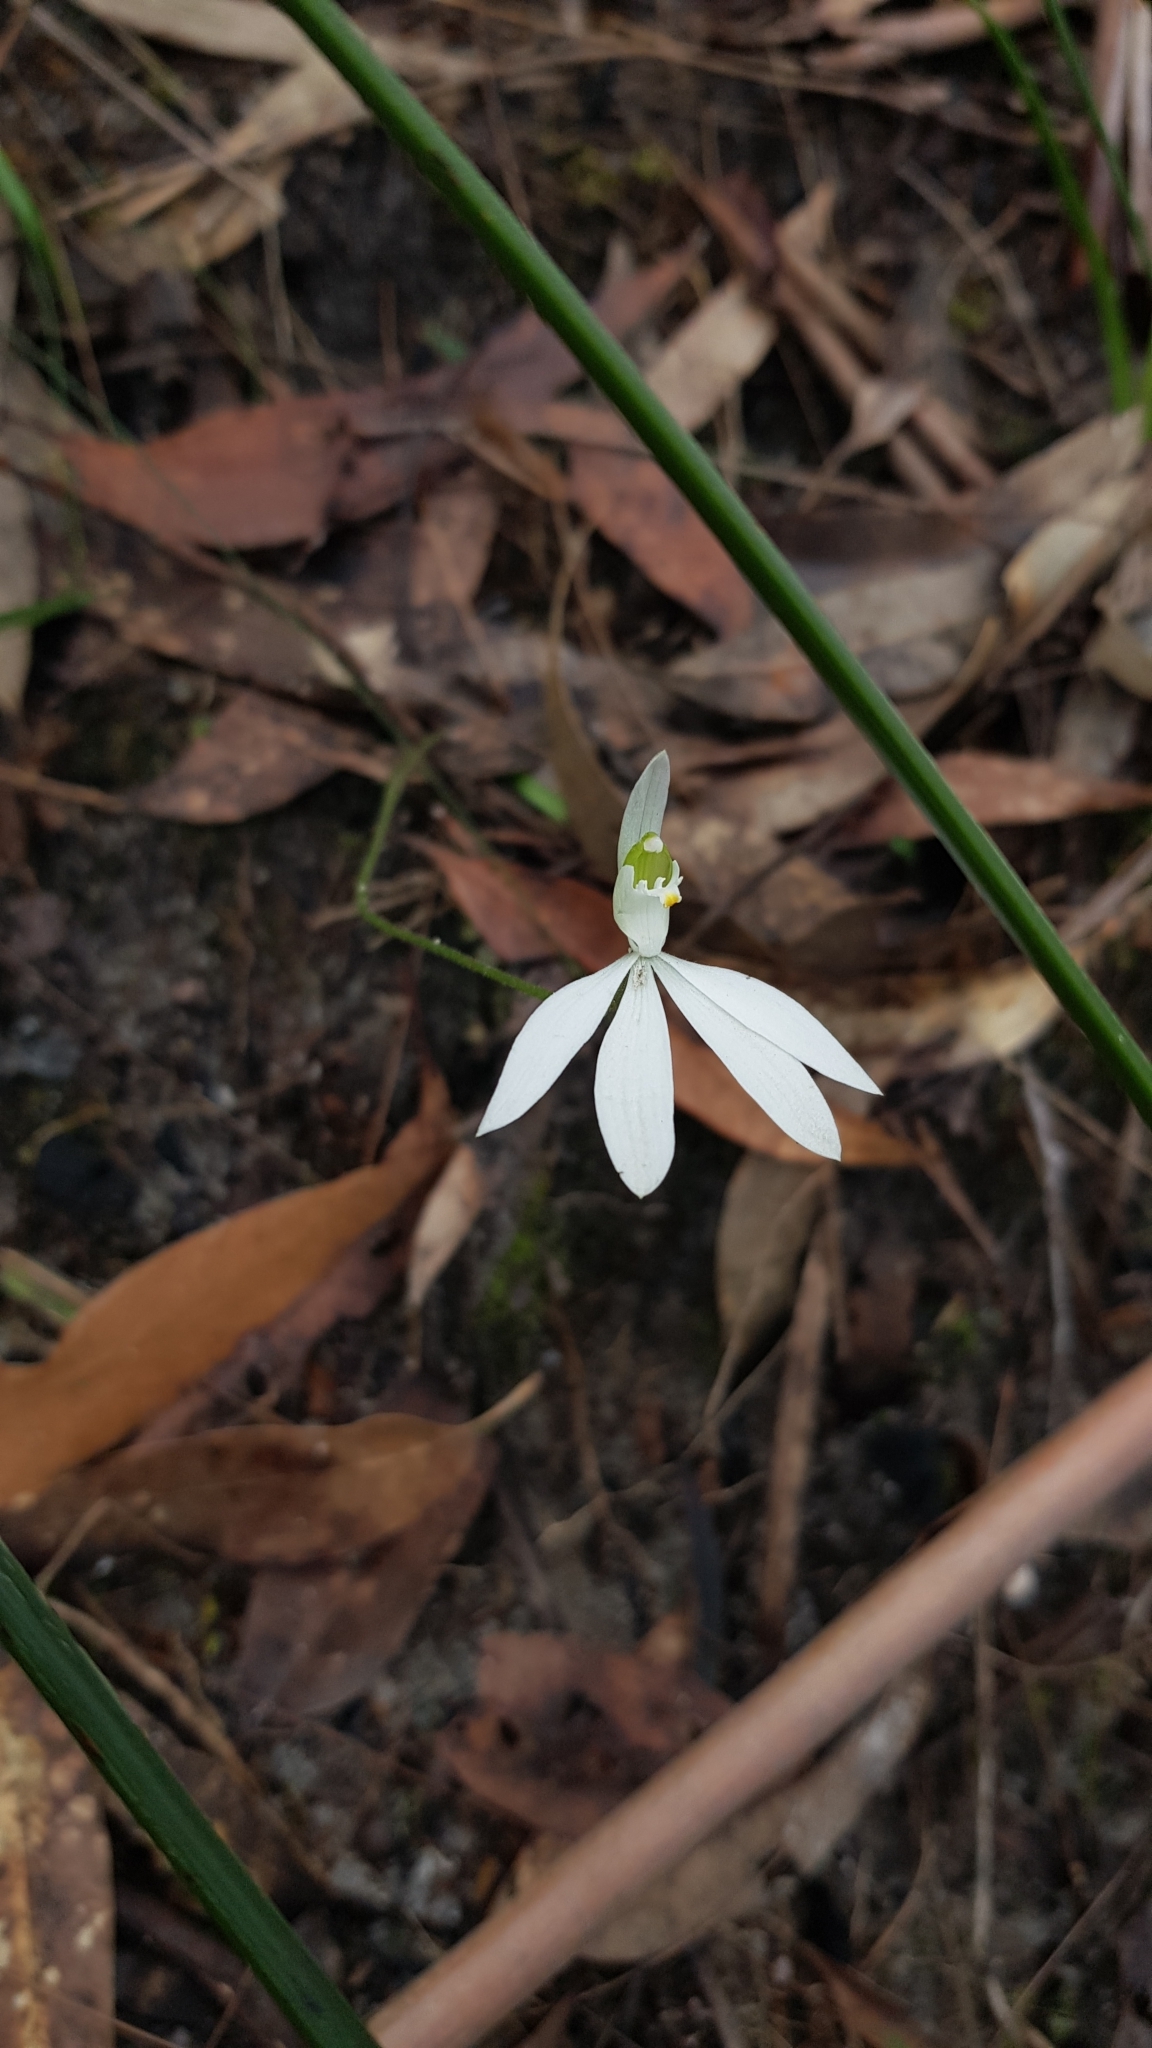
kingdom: Plantae
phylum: Tracheophyta
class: Liliopsida
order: Asparagales
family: Orchidaceae
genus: Caladenia
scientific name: Caladenia catenata
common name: White caladenia
